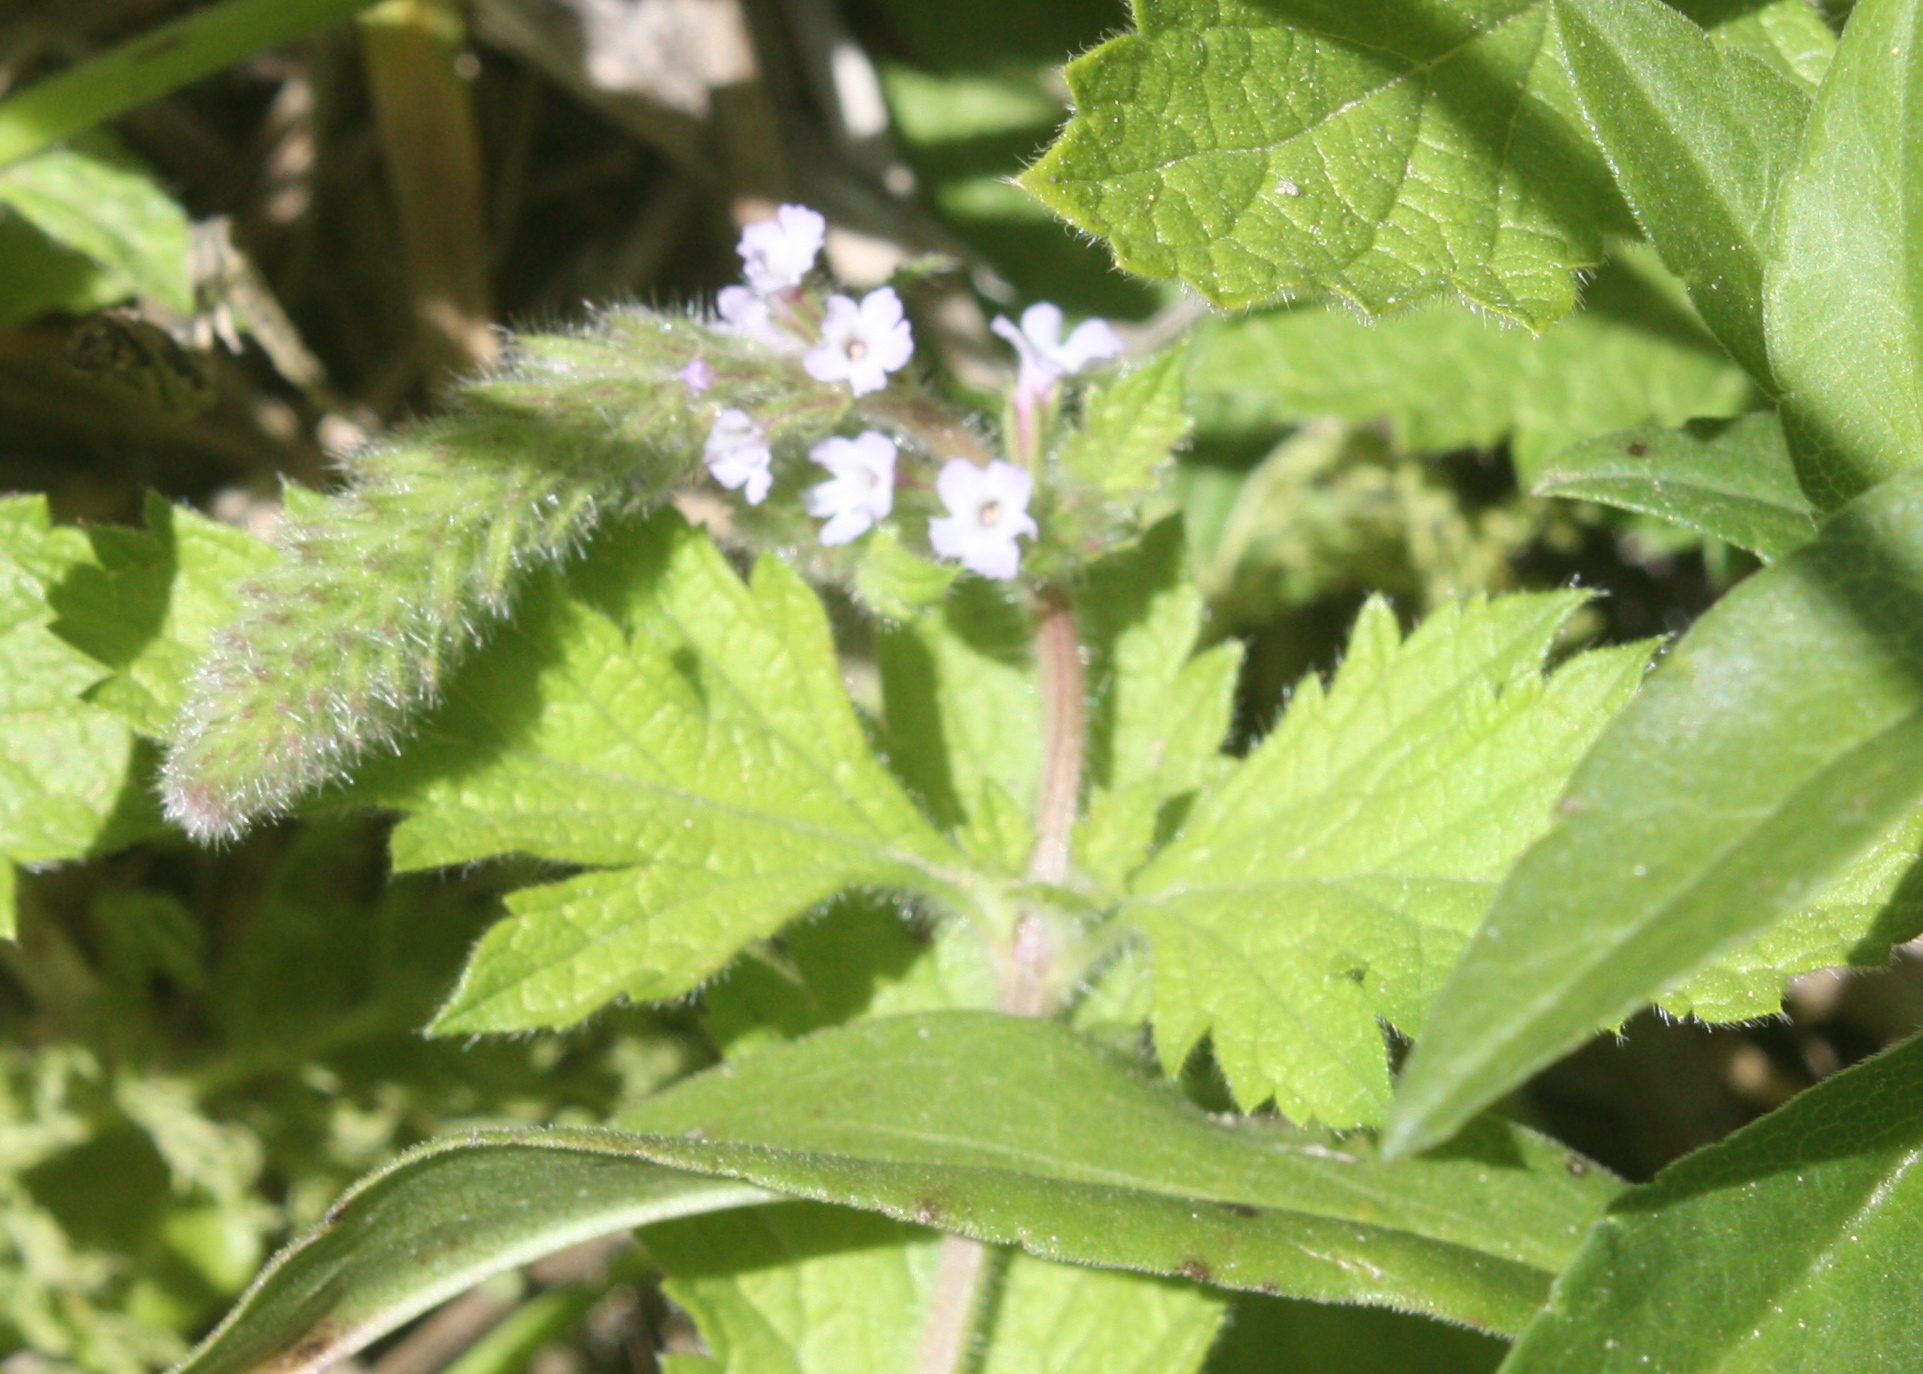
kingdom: Plantae
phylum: Tracheophyta
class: Magnoliopsida
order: Lamiales
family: Verbenaceae
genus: Verbena
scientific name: Verbena lasiostachys
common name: Vervain
